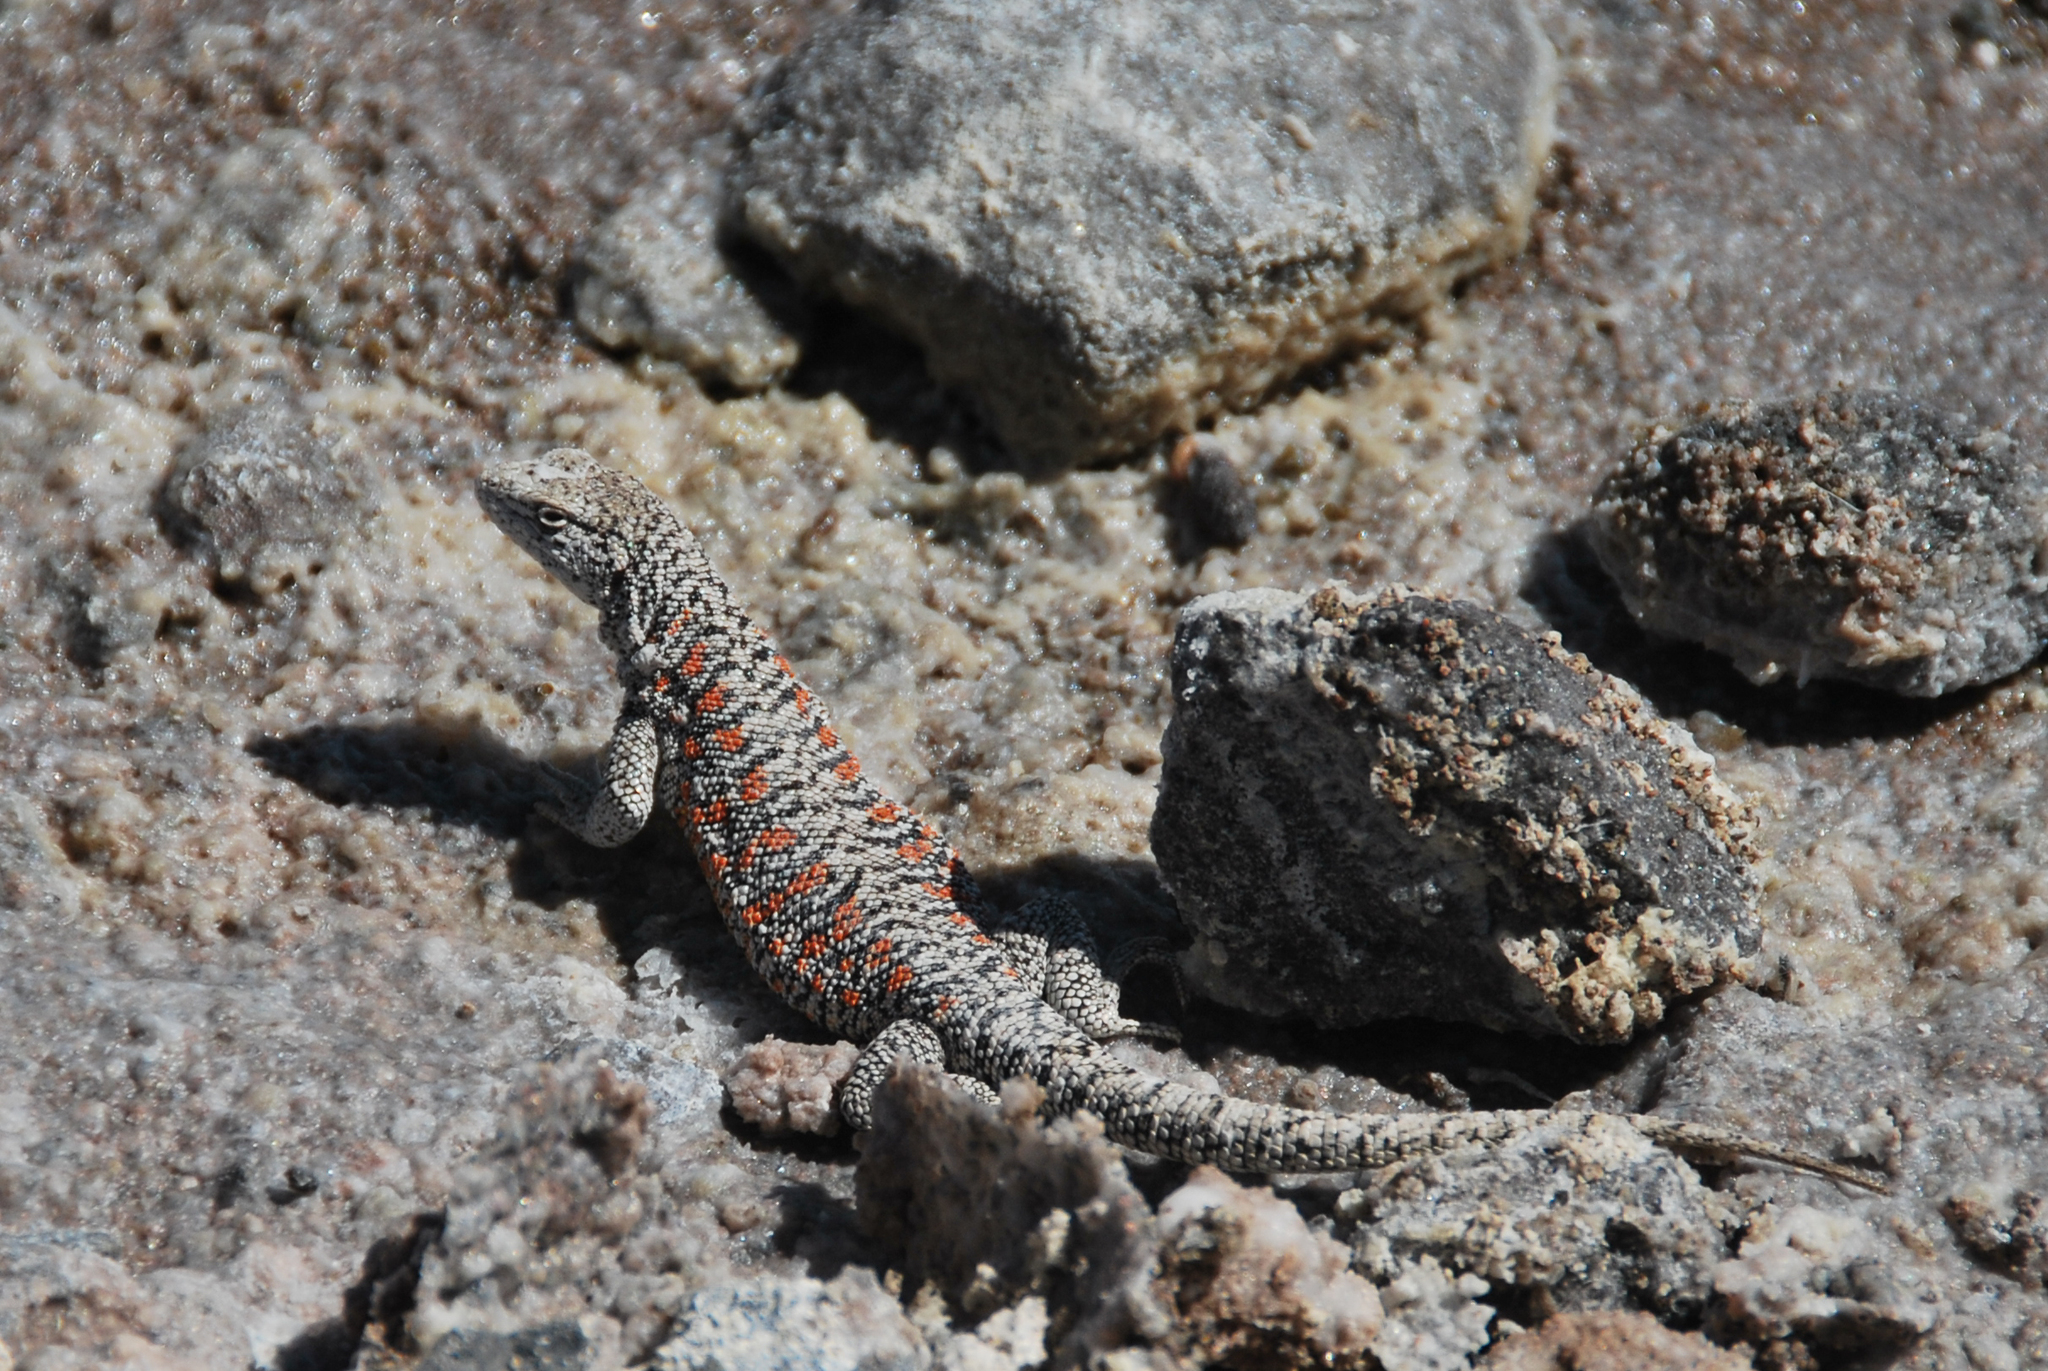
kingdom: Animalia
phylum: Chordata
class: Squamata
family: Liolaemidae
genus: Liolaemus
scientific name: Liolaemus fabiani
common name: Fabian’s lizard
